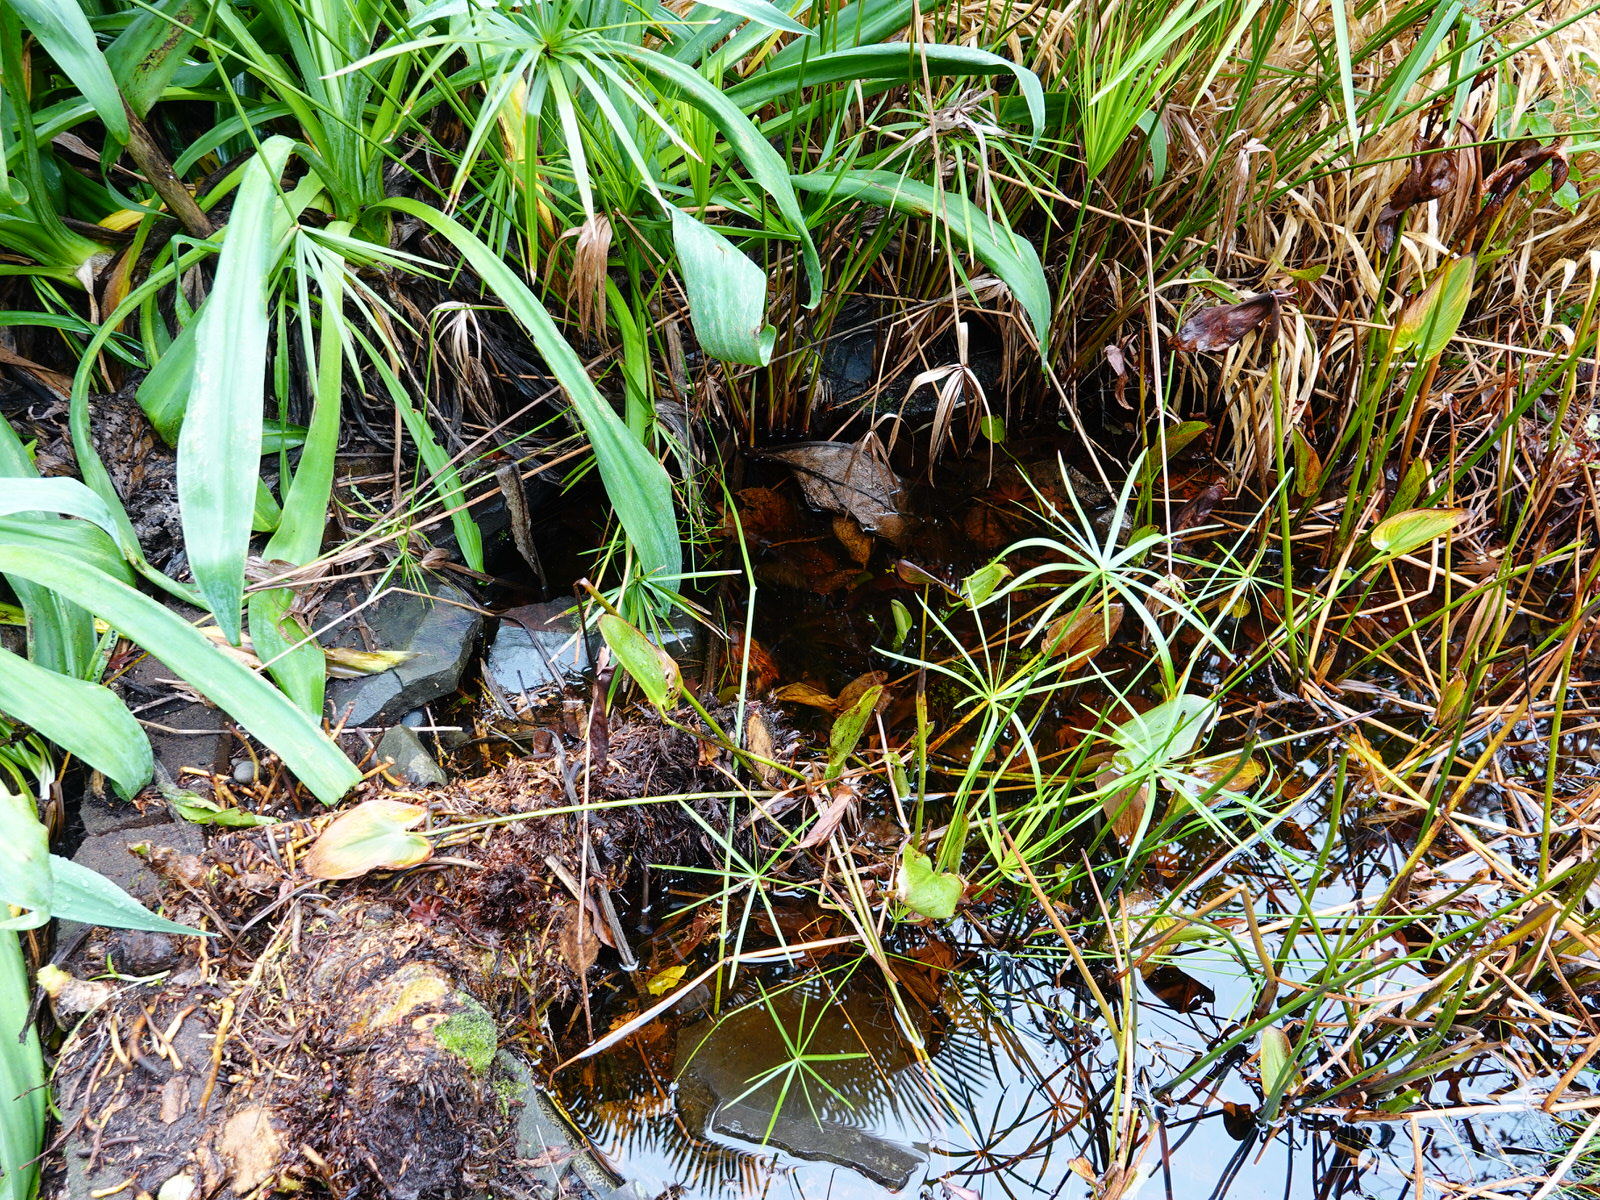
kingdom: Animalia
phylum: Arthropoda
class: Insecta
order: Hemiptera
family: Veliidae
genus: Microvelia
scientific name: Microvelia macgregori
